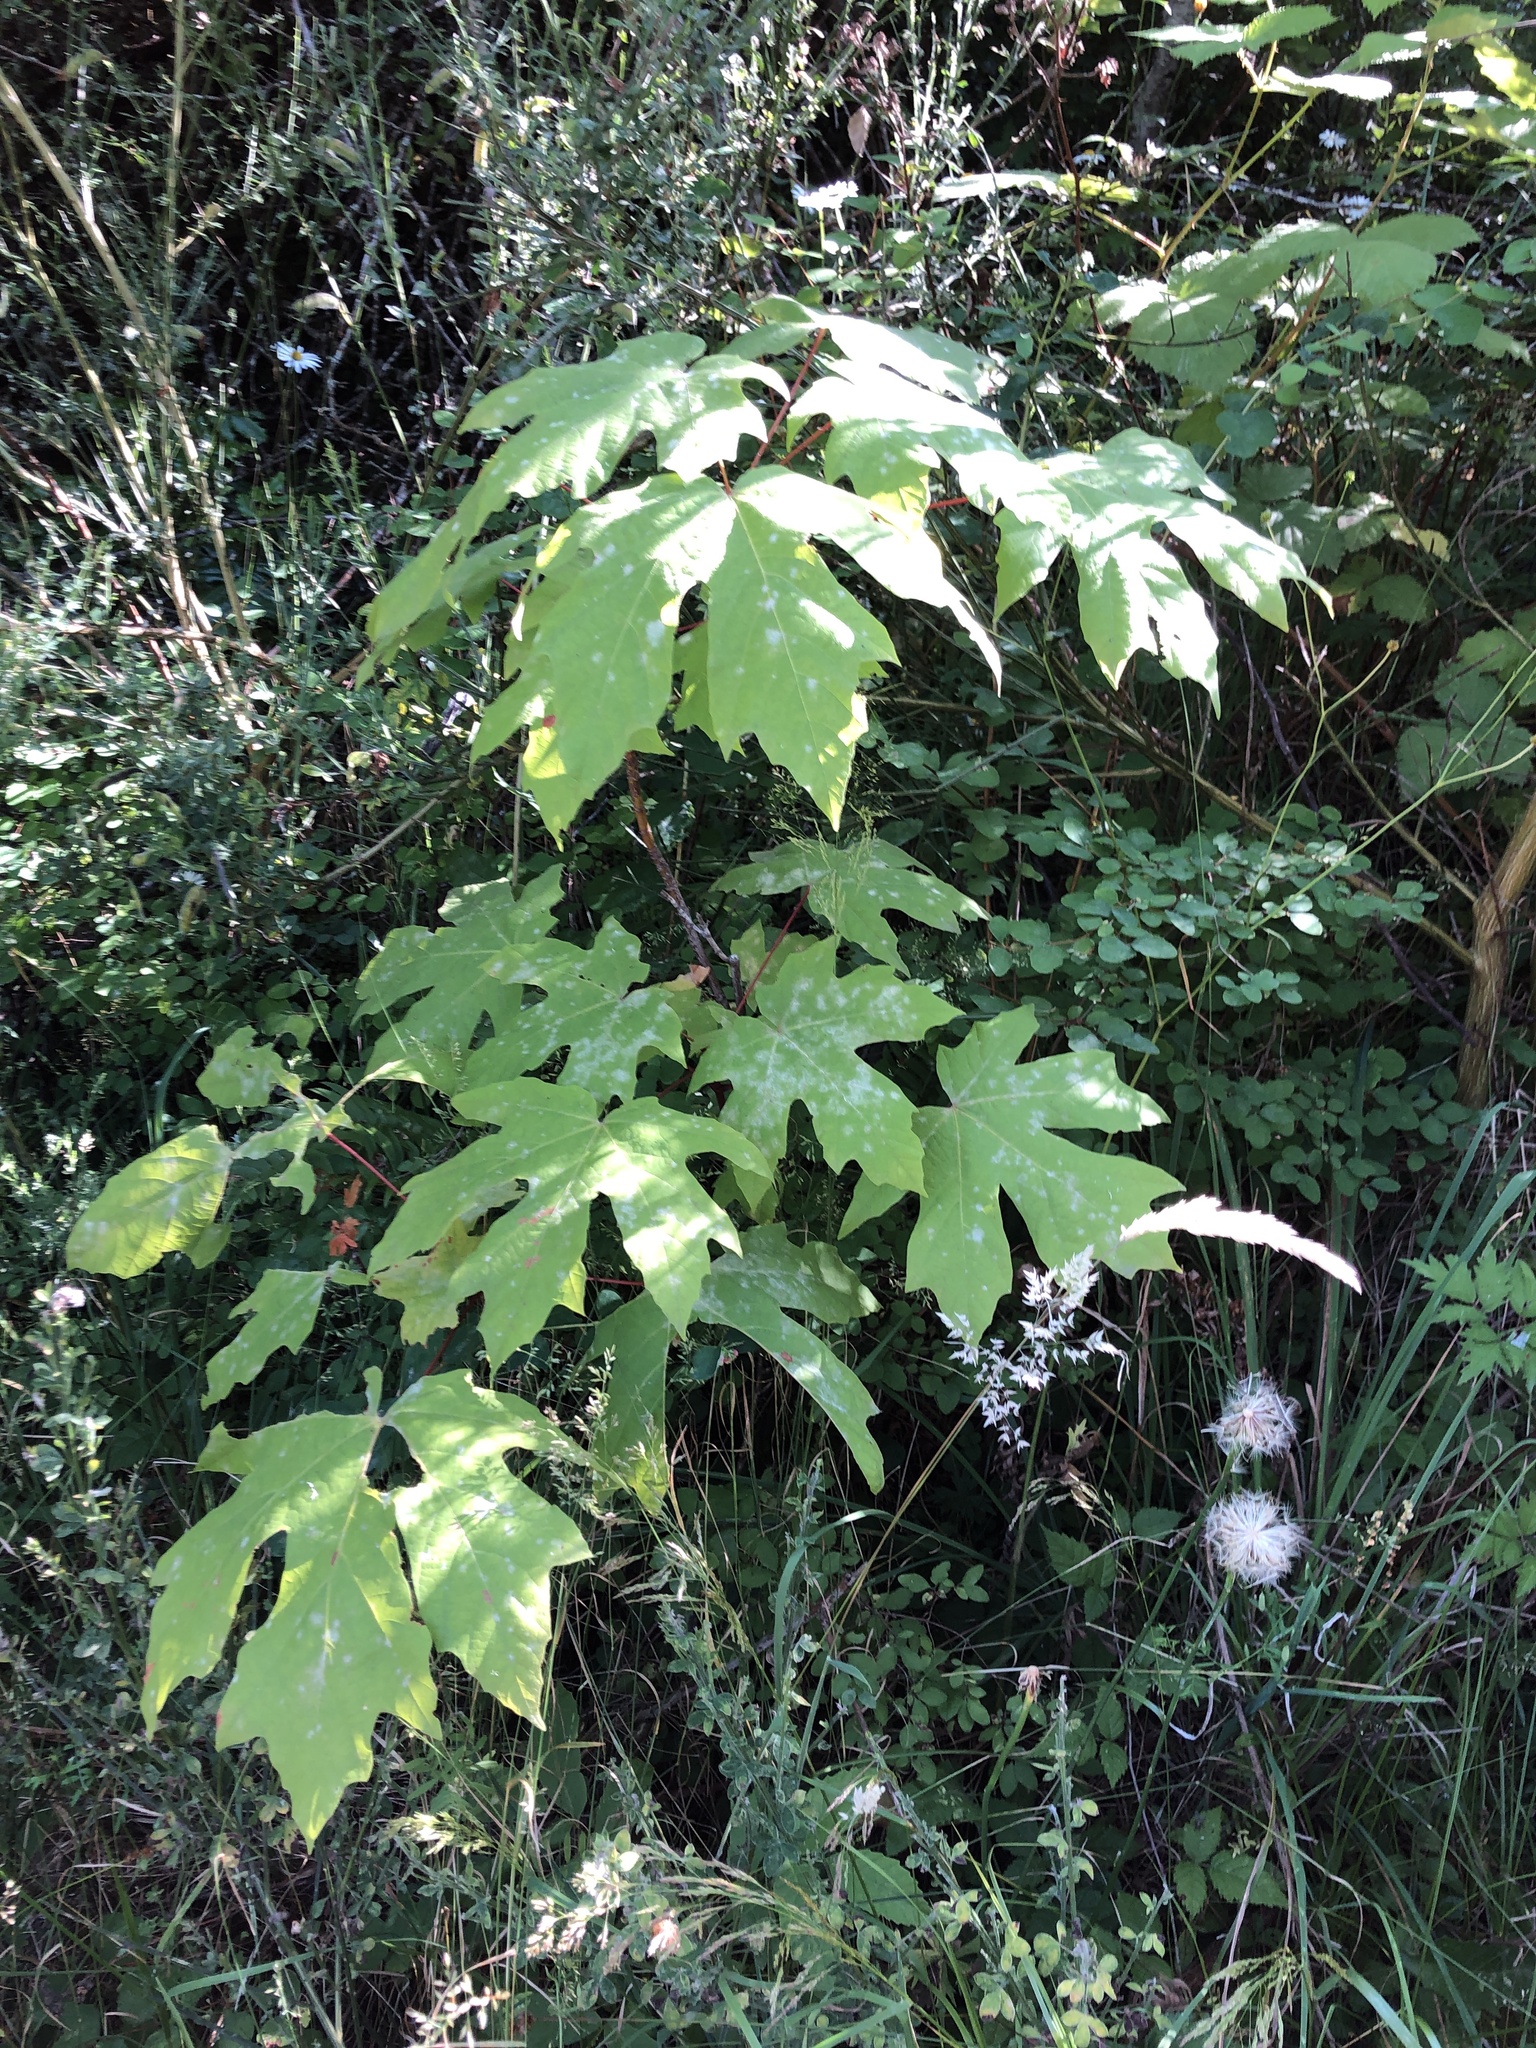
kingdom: Plantae
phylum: Tracheophyta
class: Magnoliopsida
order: Sapindales
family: Sapindaceae
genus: Acer
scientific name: Acer macrophyllum
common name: Oregon maple
